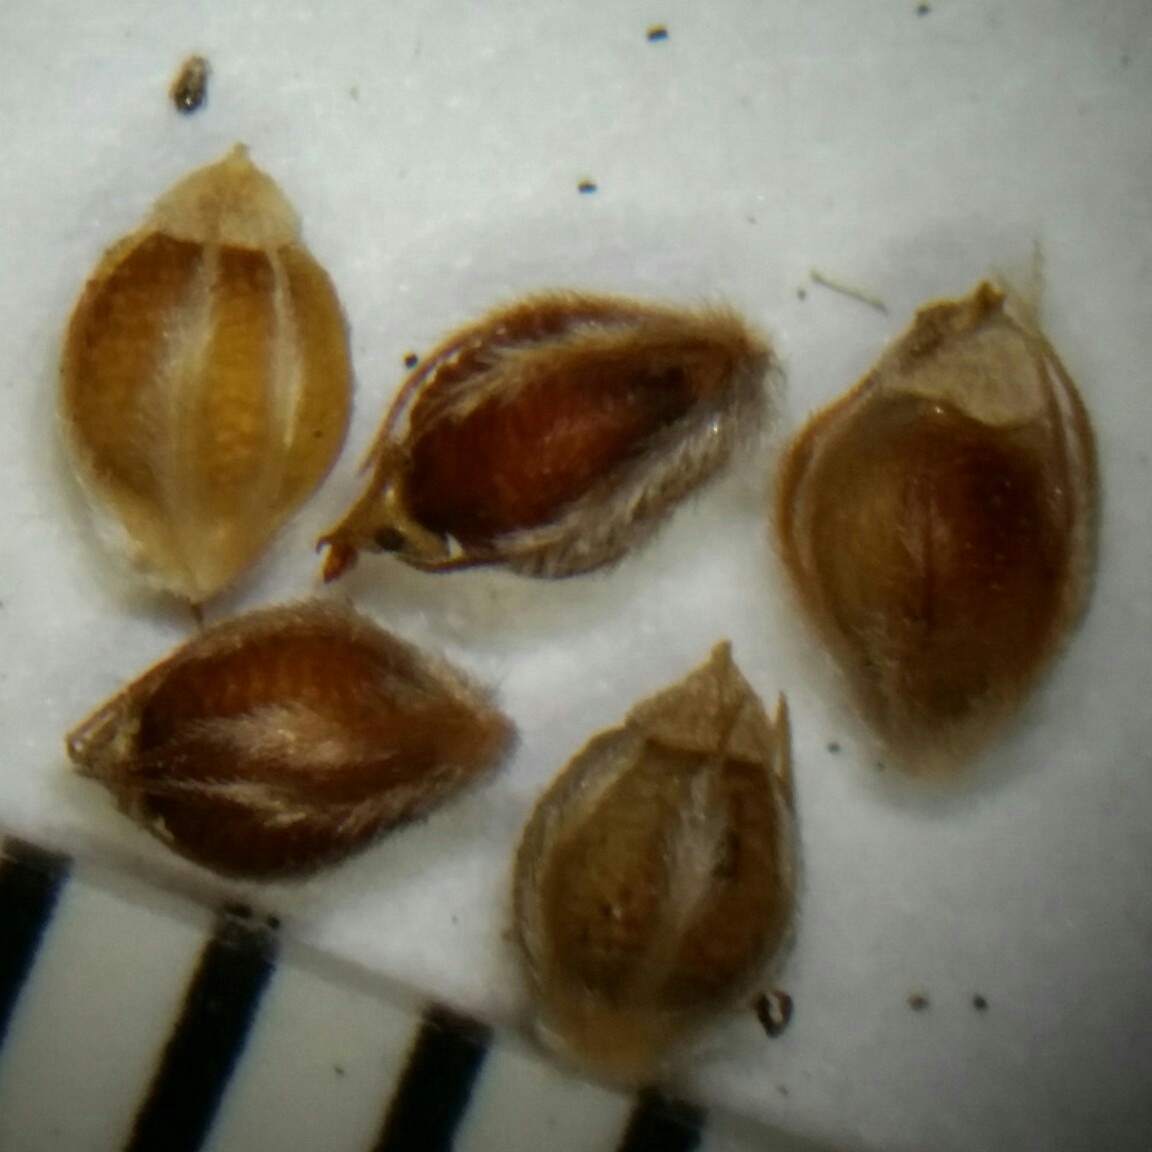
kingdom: Plantae
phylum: Tracheophyta
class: Liliopsida
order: Poales
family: Cyperaceae
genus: Rhynchospora
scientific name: Rhynchospora plumosa
